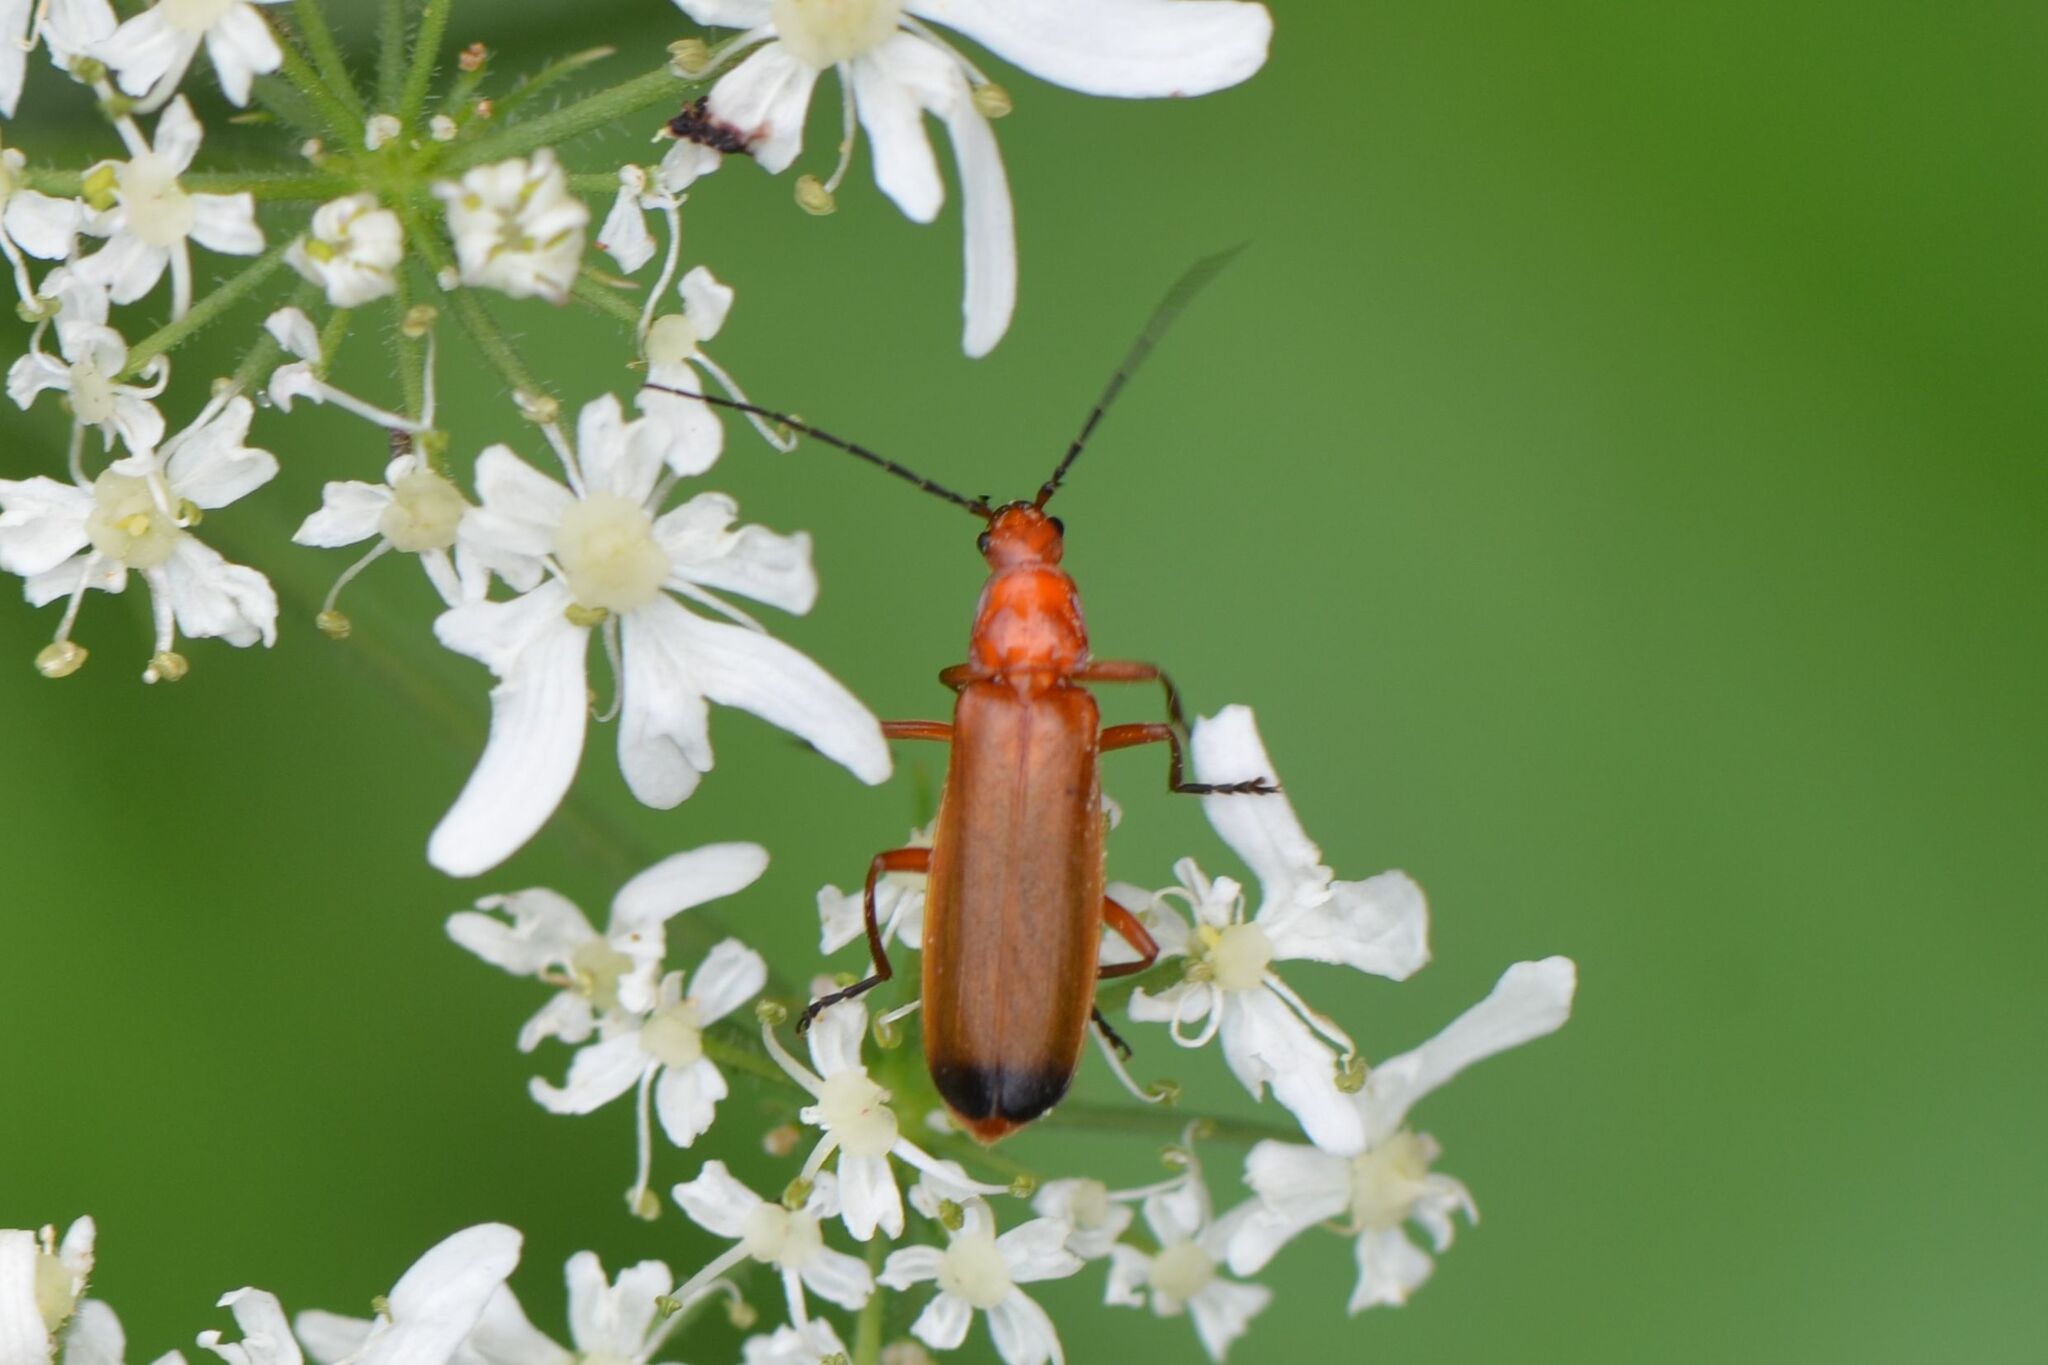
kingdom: Animalia
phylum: Arthropoda
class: Insecta
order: Coleoptera
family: Cantharidae
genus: Rhagonycha
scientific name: Rhagonycha fulva
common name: Common red soldier beetle
